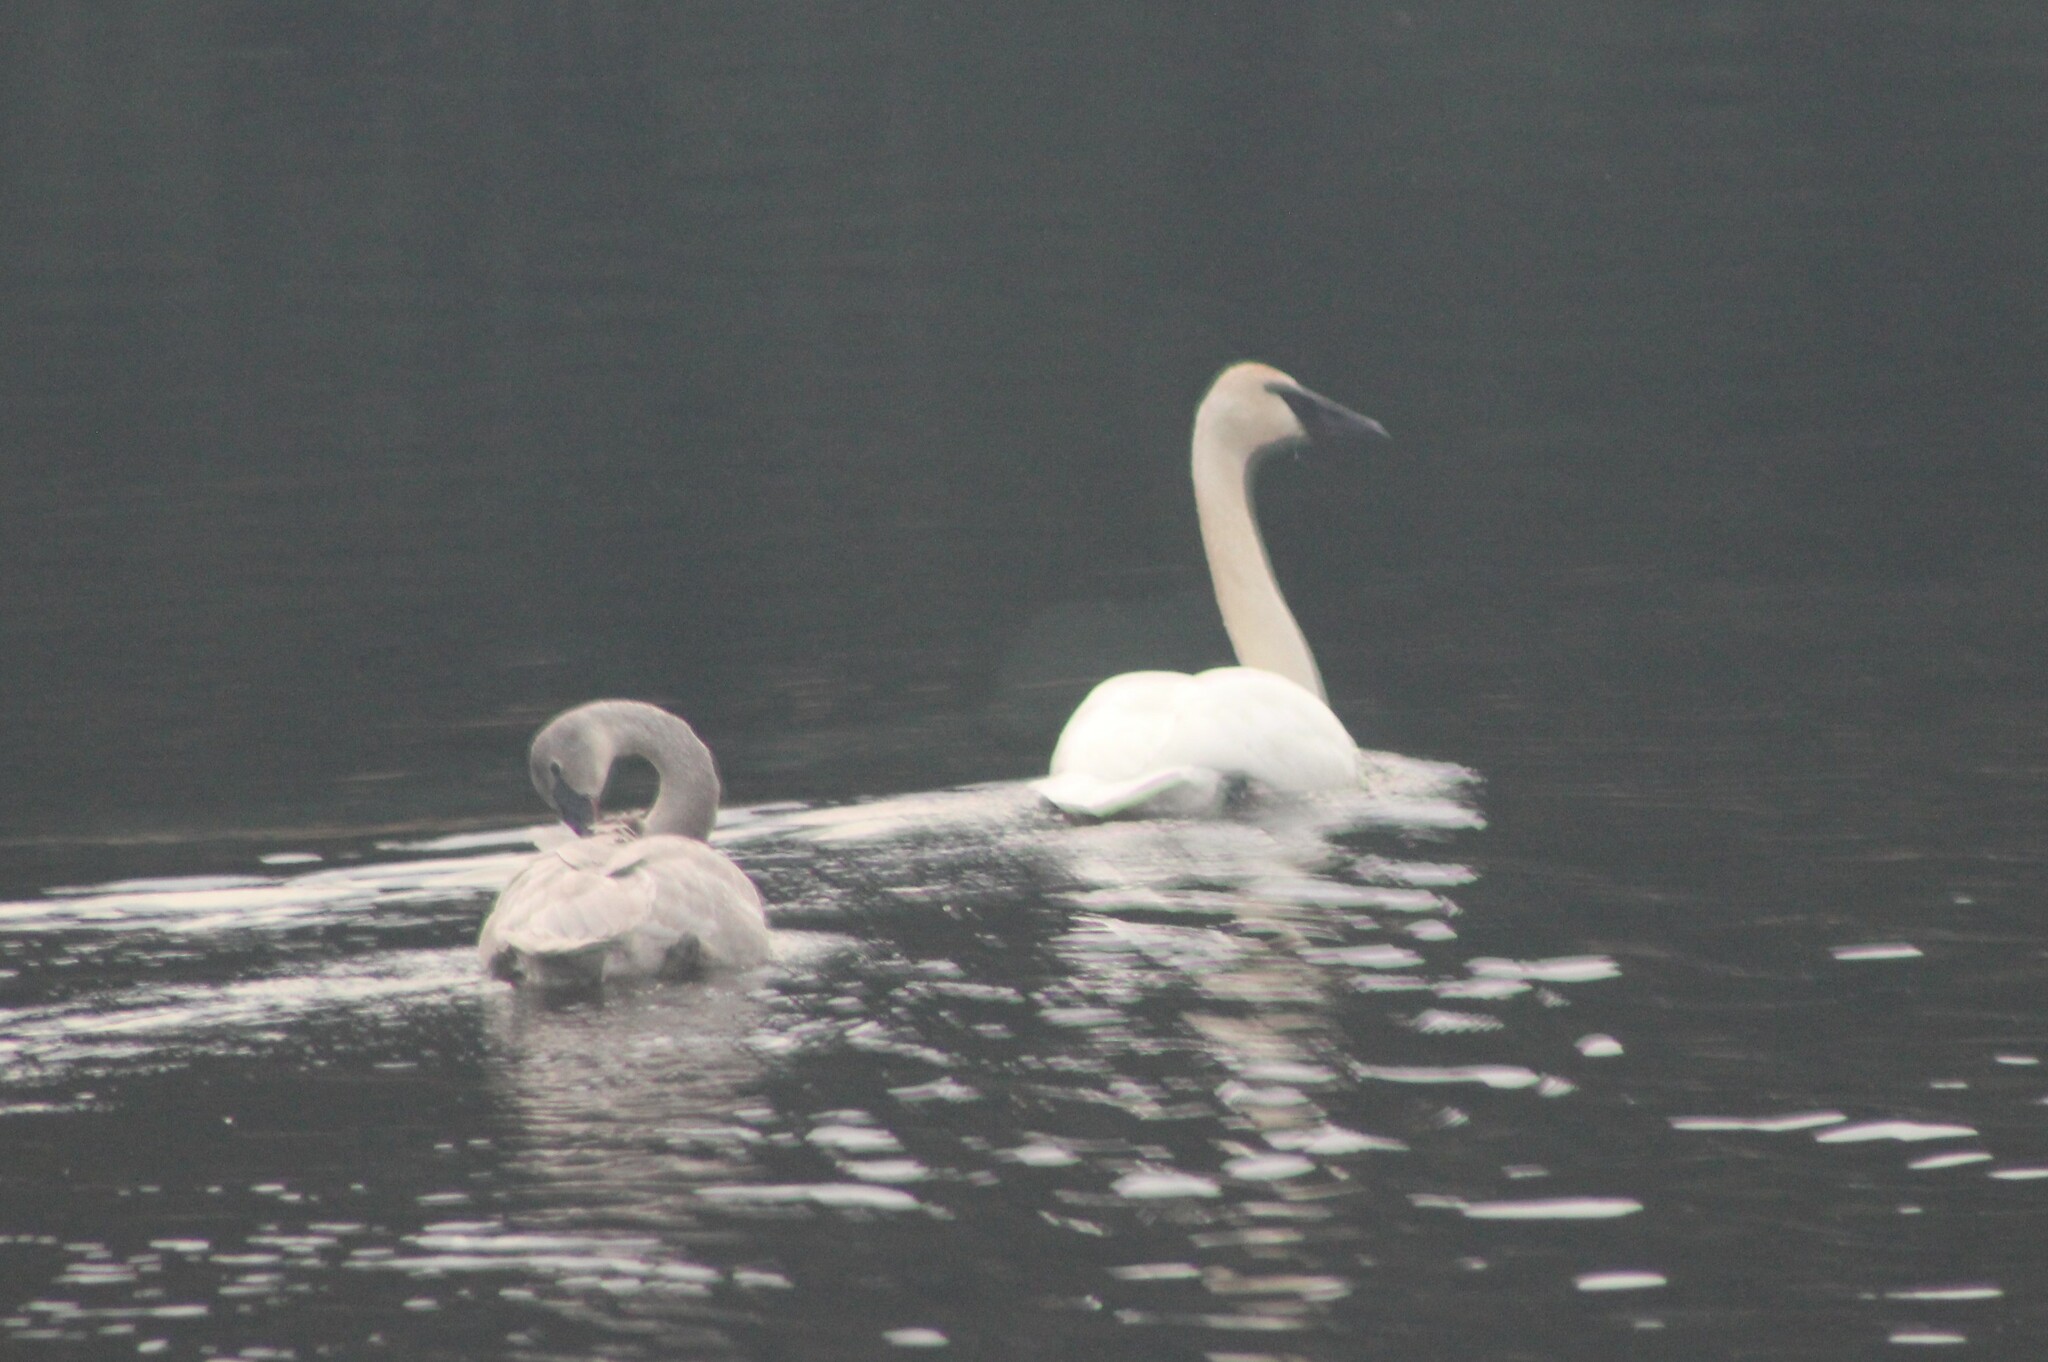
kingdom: Animalia
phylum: Chordata
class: Aves
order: Anseriformes
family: Anatidae
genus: Cygnus
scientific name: Cygnus buccinator
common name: Trumpeter swan
